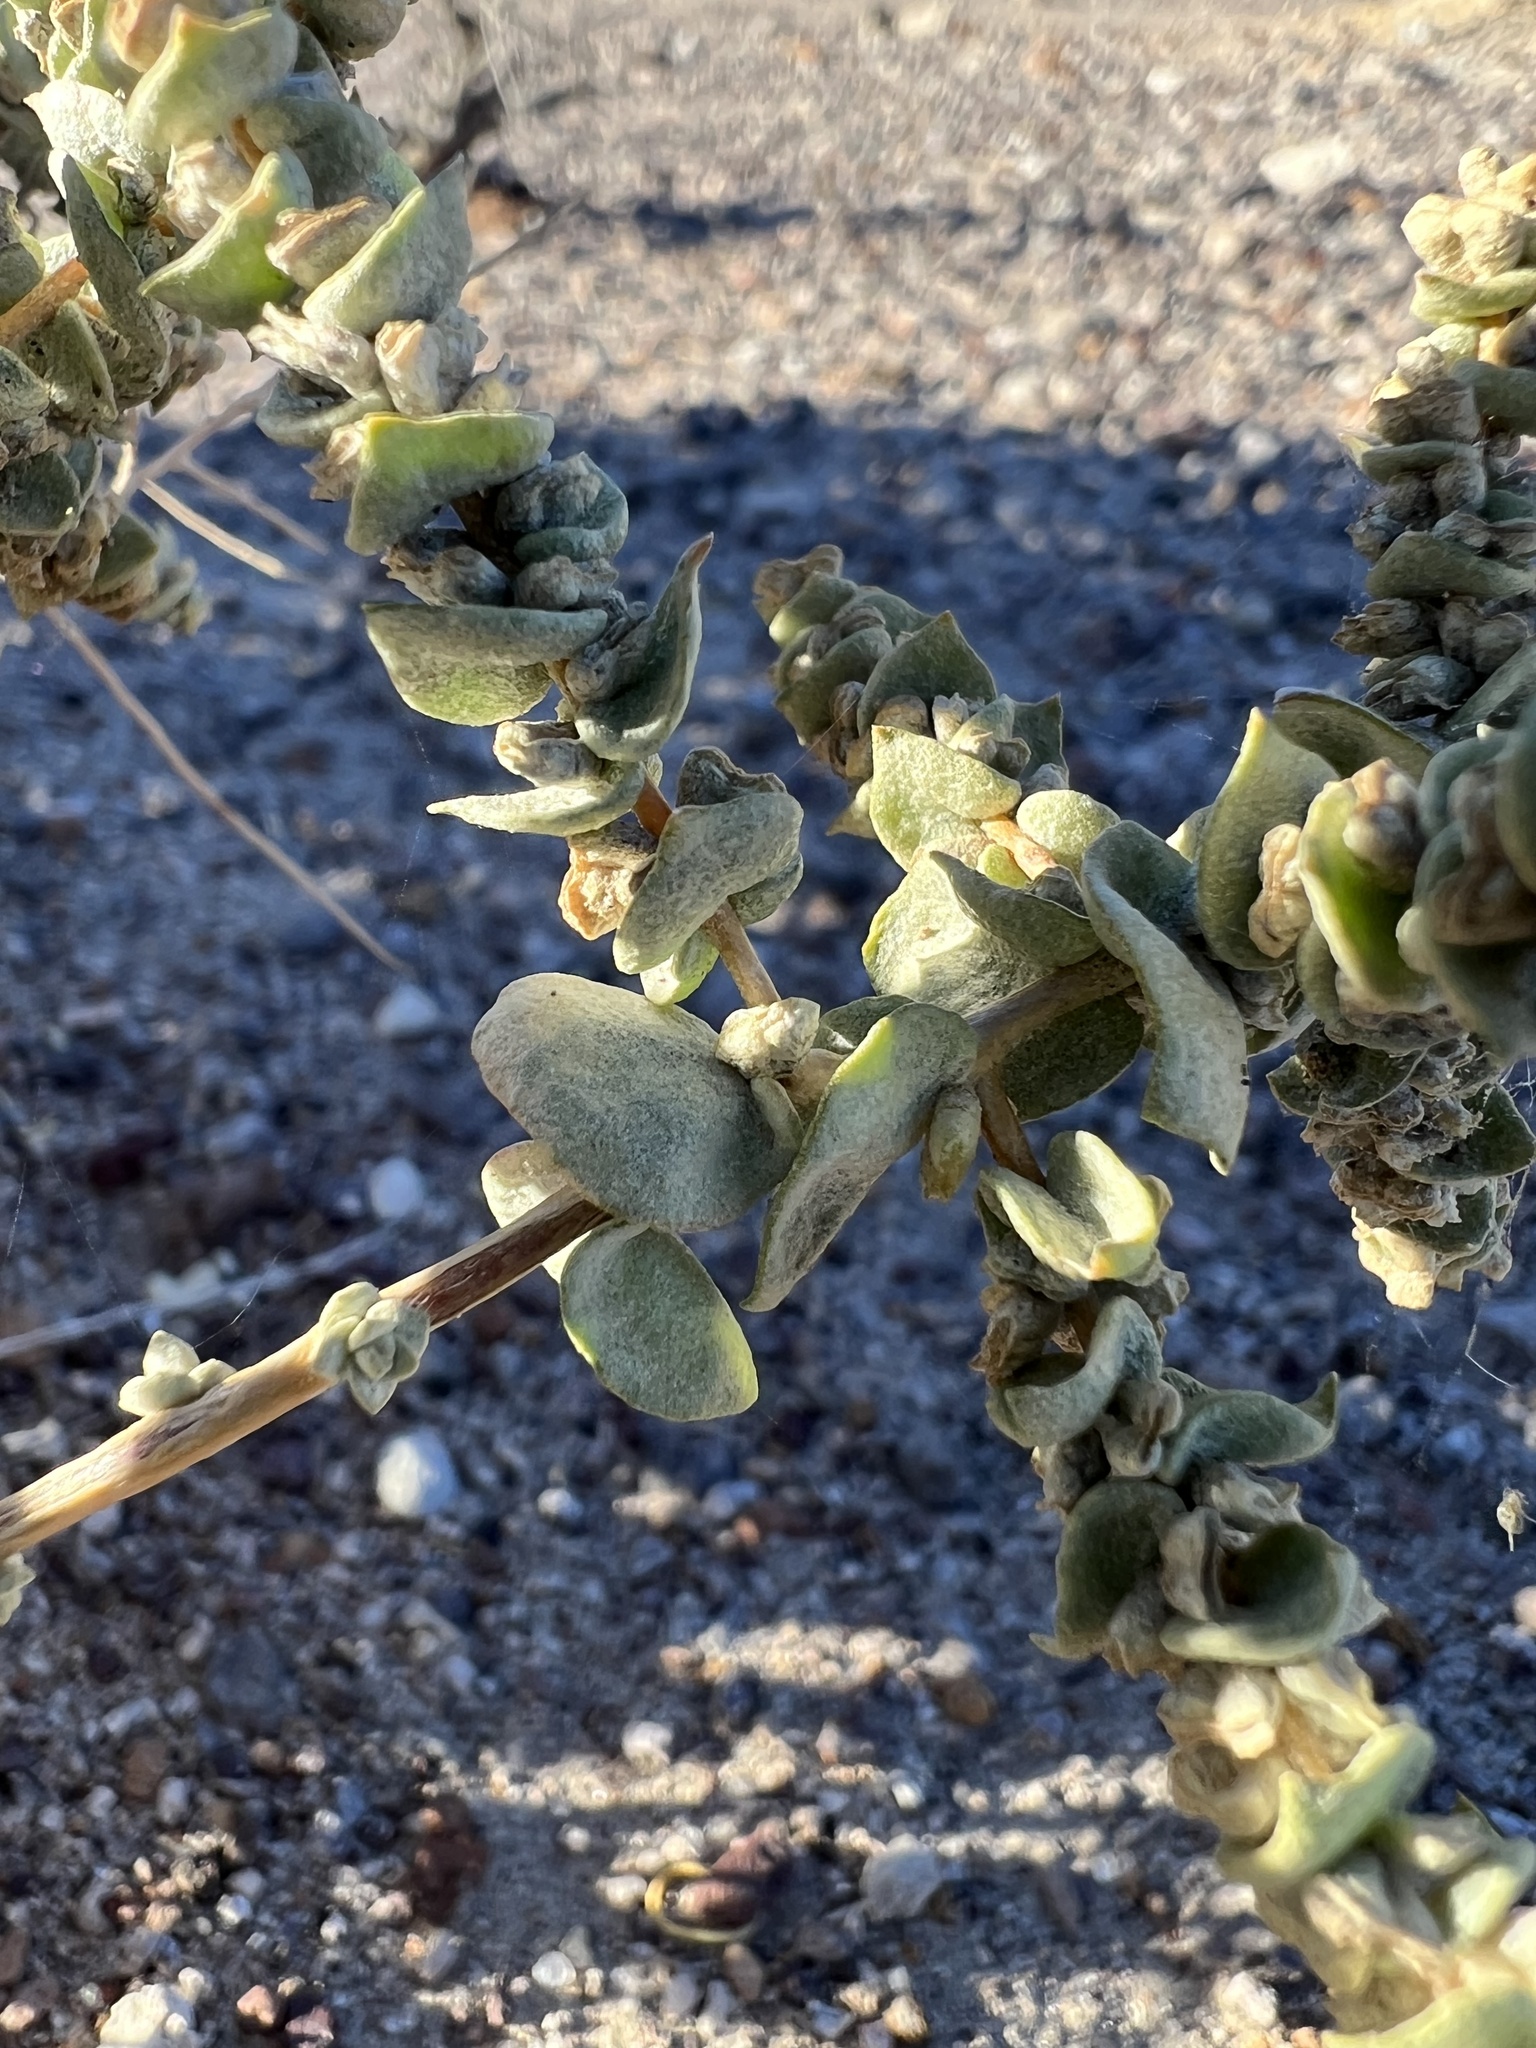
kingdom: Plantae
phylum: Tracheophyta
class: Magnoliopsida
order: Caryophyllales
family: Amaranthaceae
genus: Atriplex
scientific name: Atriplex parryi
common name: Parry's saltbush
